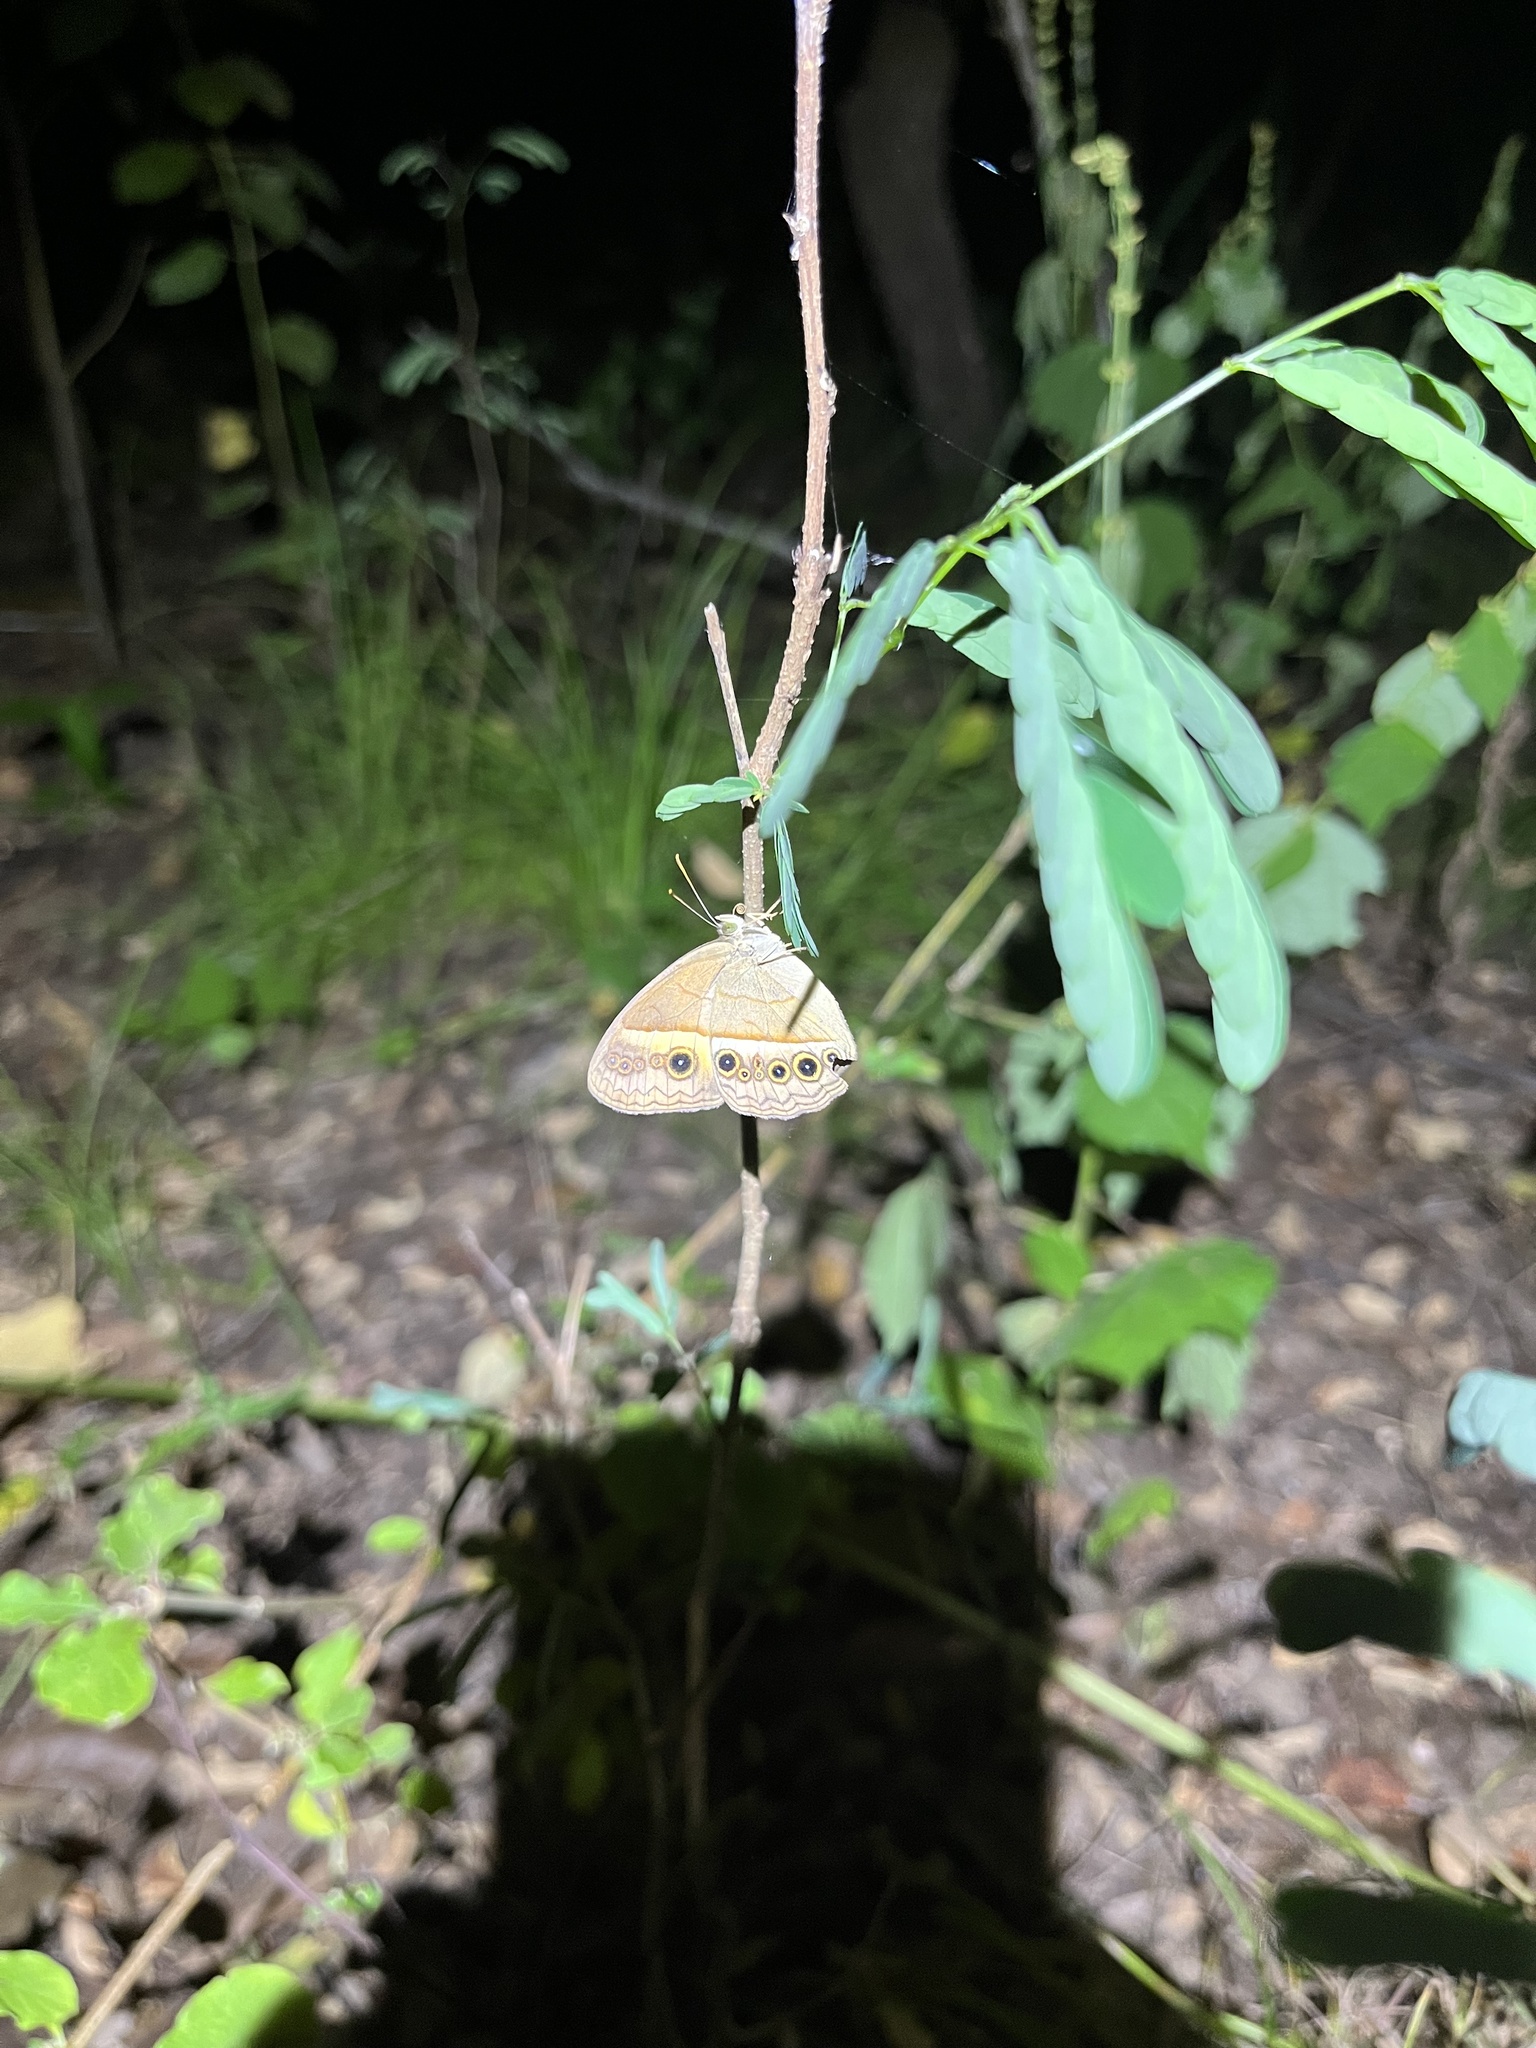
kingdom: Animalia
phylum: Arthropoda
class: Insecta
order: Lepidoptera
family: Nymphalidae
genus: Mycalesis
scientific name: Mycalesis terminus
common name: Orange bushbrown
